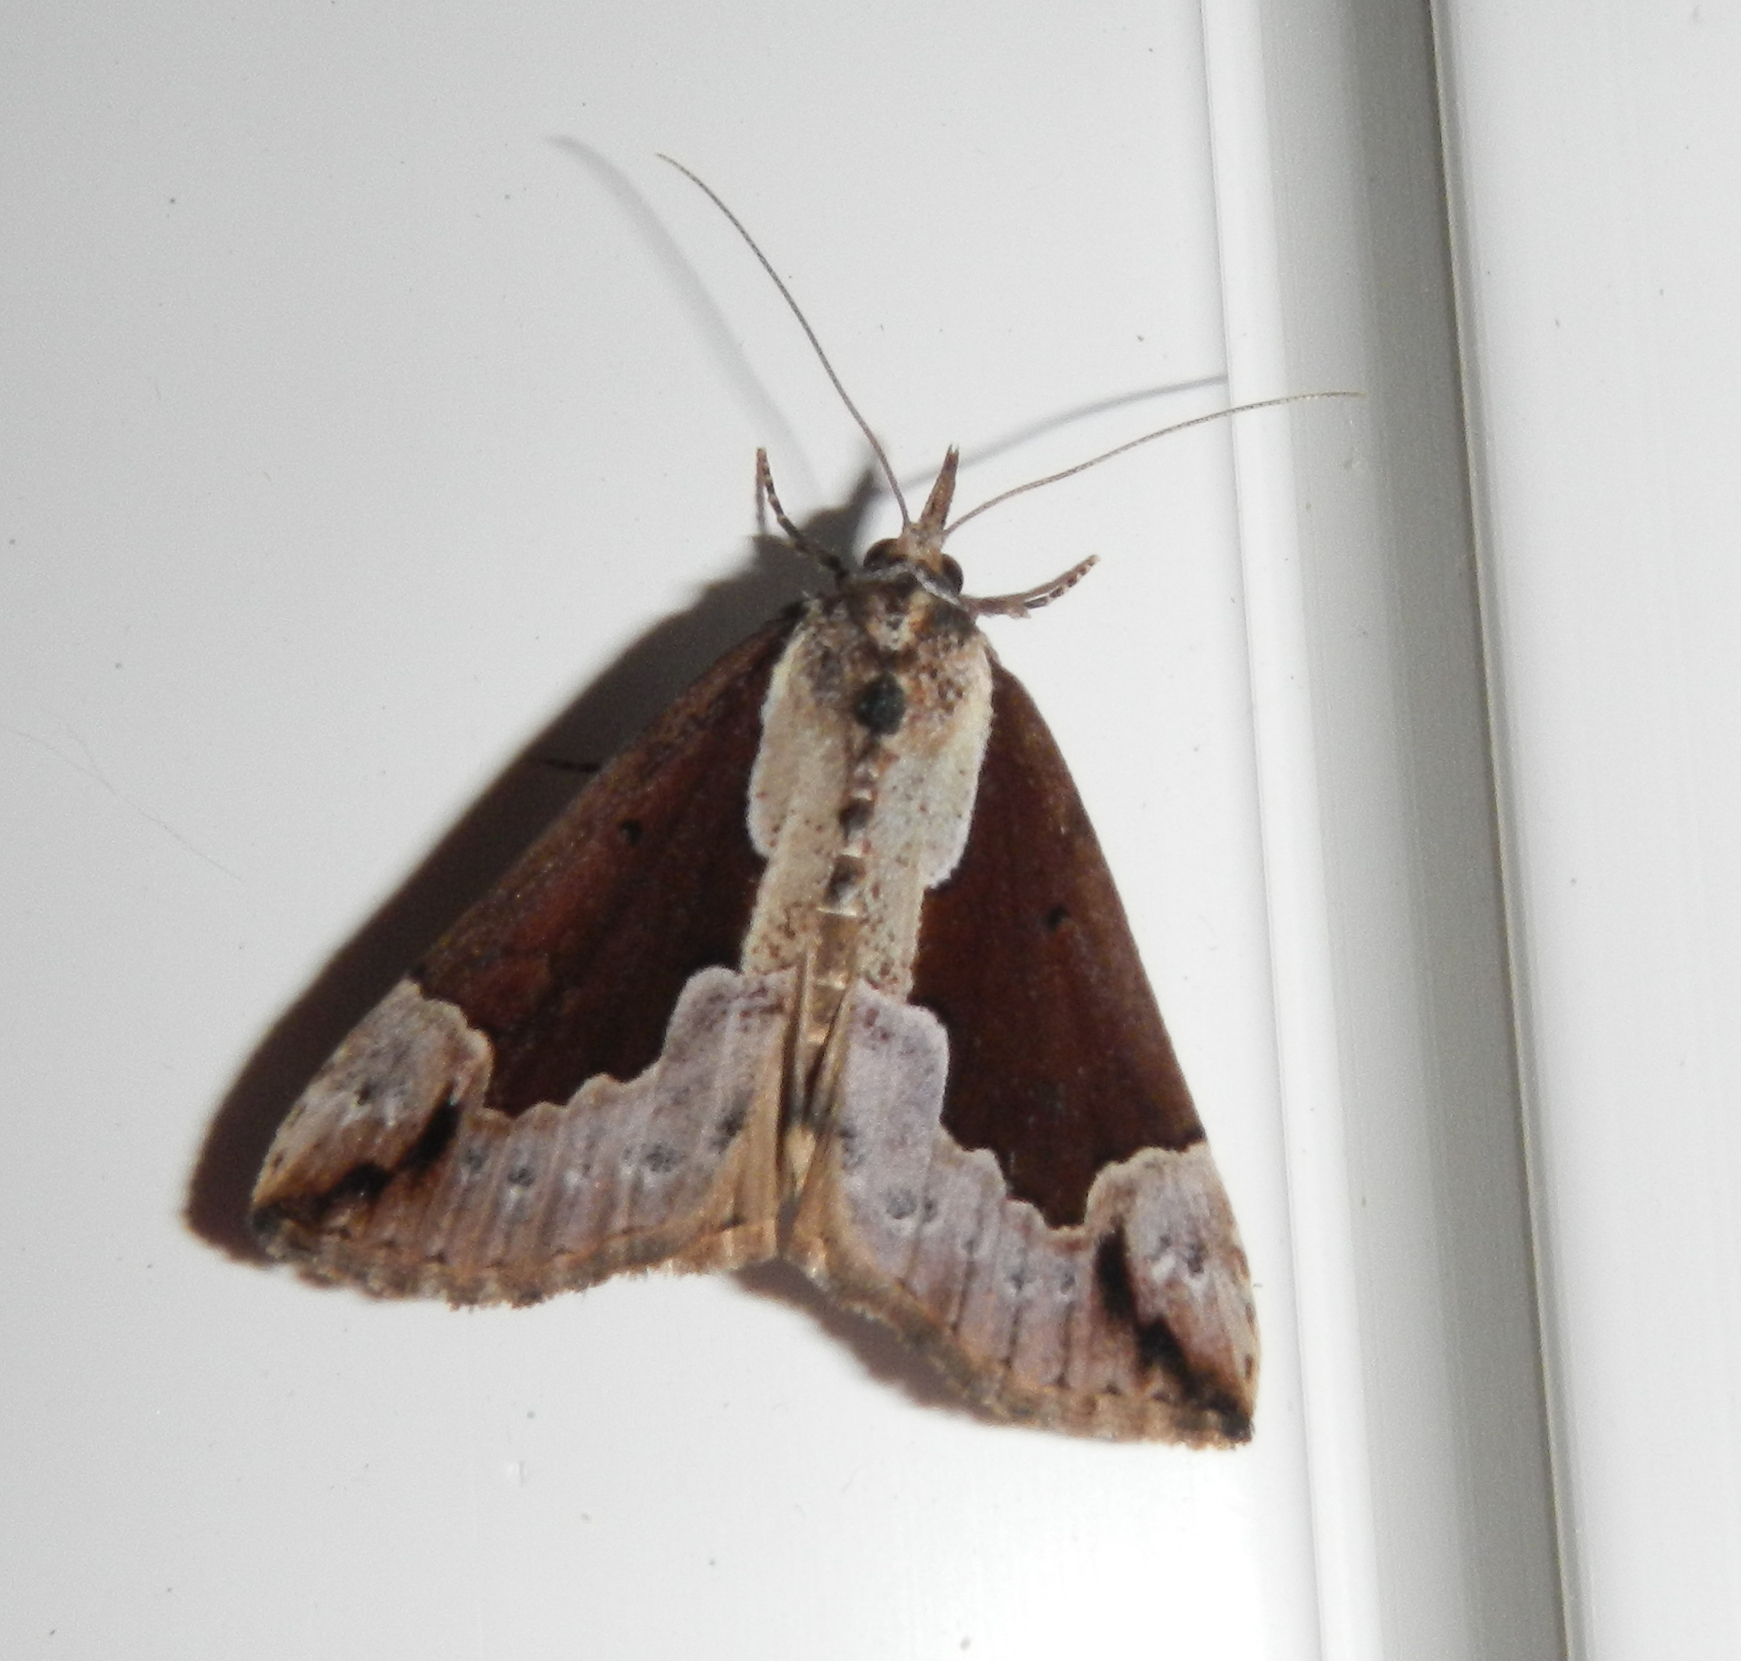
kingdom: Animalia
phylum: Arthropoda
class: Insecta
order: Lepidoptera
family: Erebidae
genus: Hypena
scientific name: Hypena baltimoralis
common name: Baltimore snout
